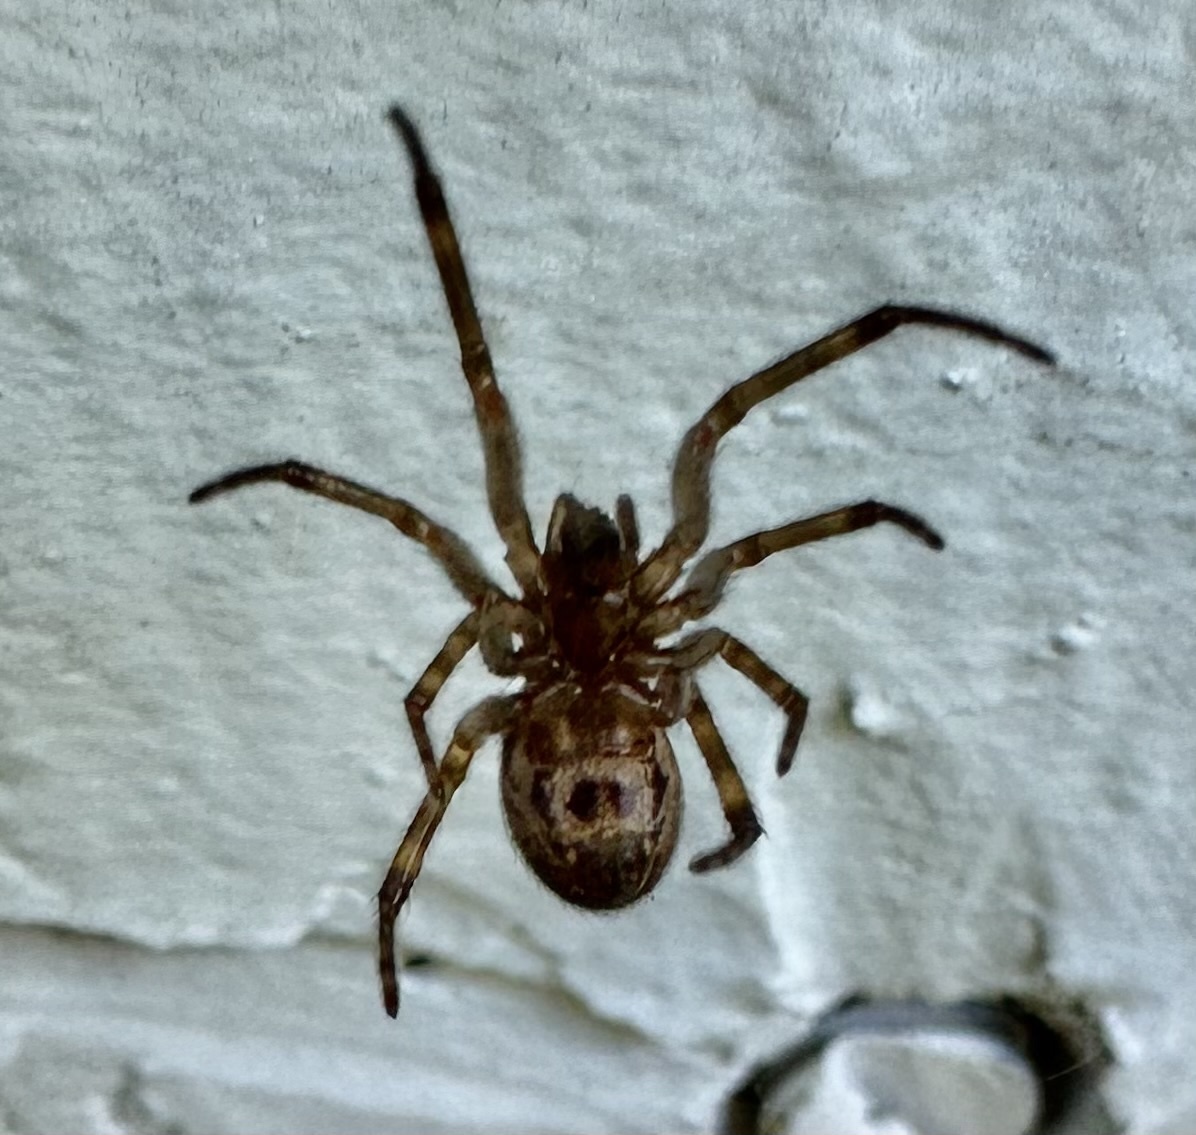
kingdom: Animalia
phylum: Arthropoda
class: Arachnida
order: Araneae
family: Theridiidae
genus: Steatoda
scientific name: Steatoda nobilis
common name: Cobweb weaver
